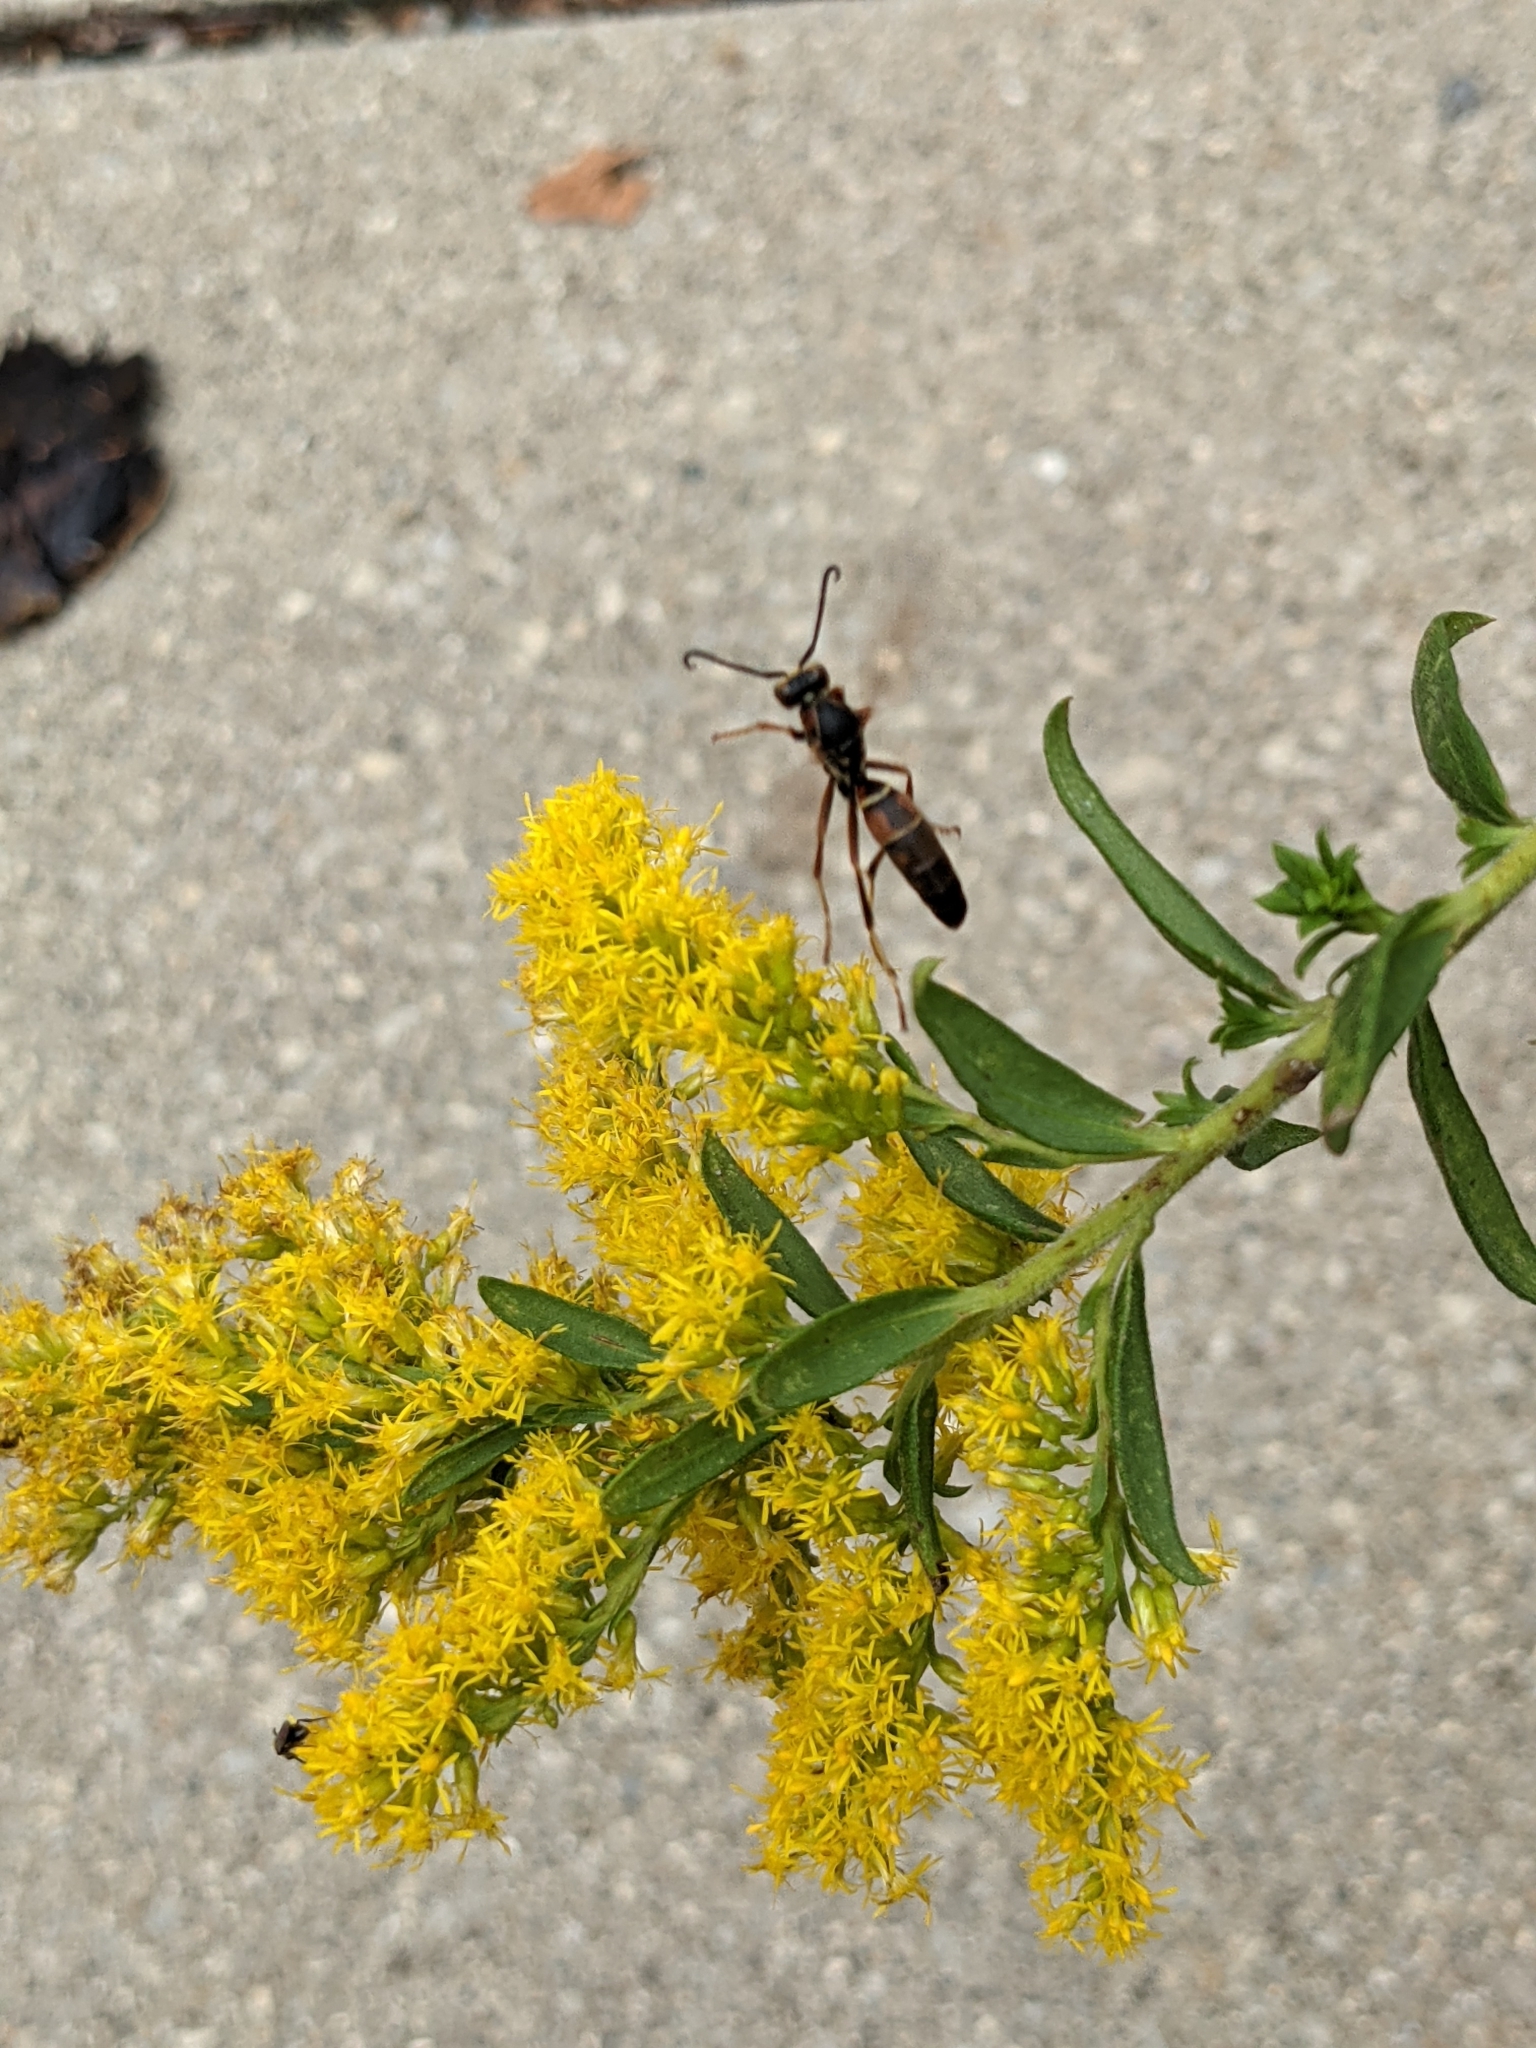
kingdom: Animalia
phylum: Arthropoda
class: Insecta
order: Hymenoptera
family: Eumenidae
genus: Polistes
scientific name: Polistes fuscatus
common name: Dark paper wasp
